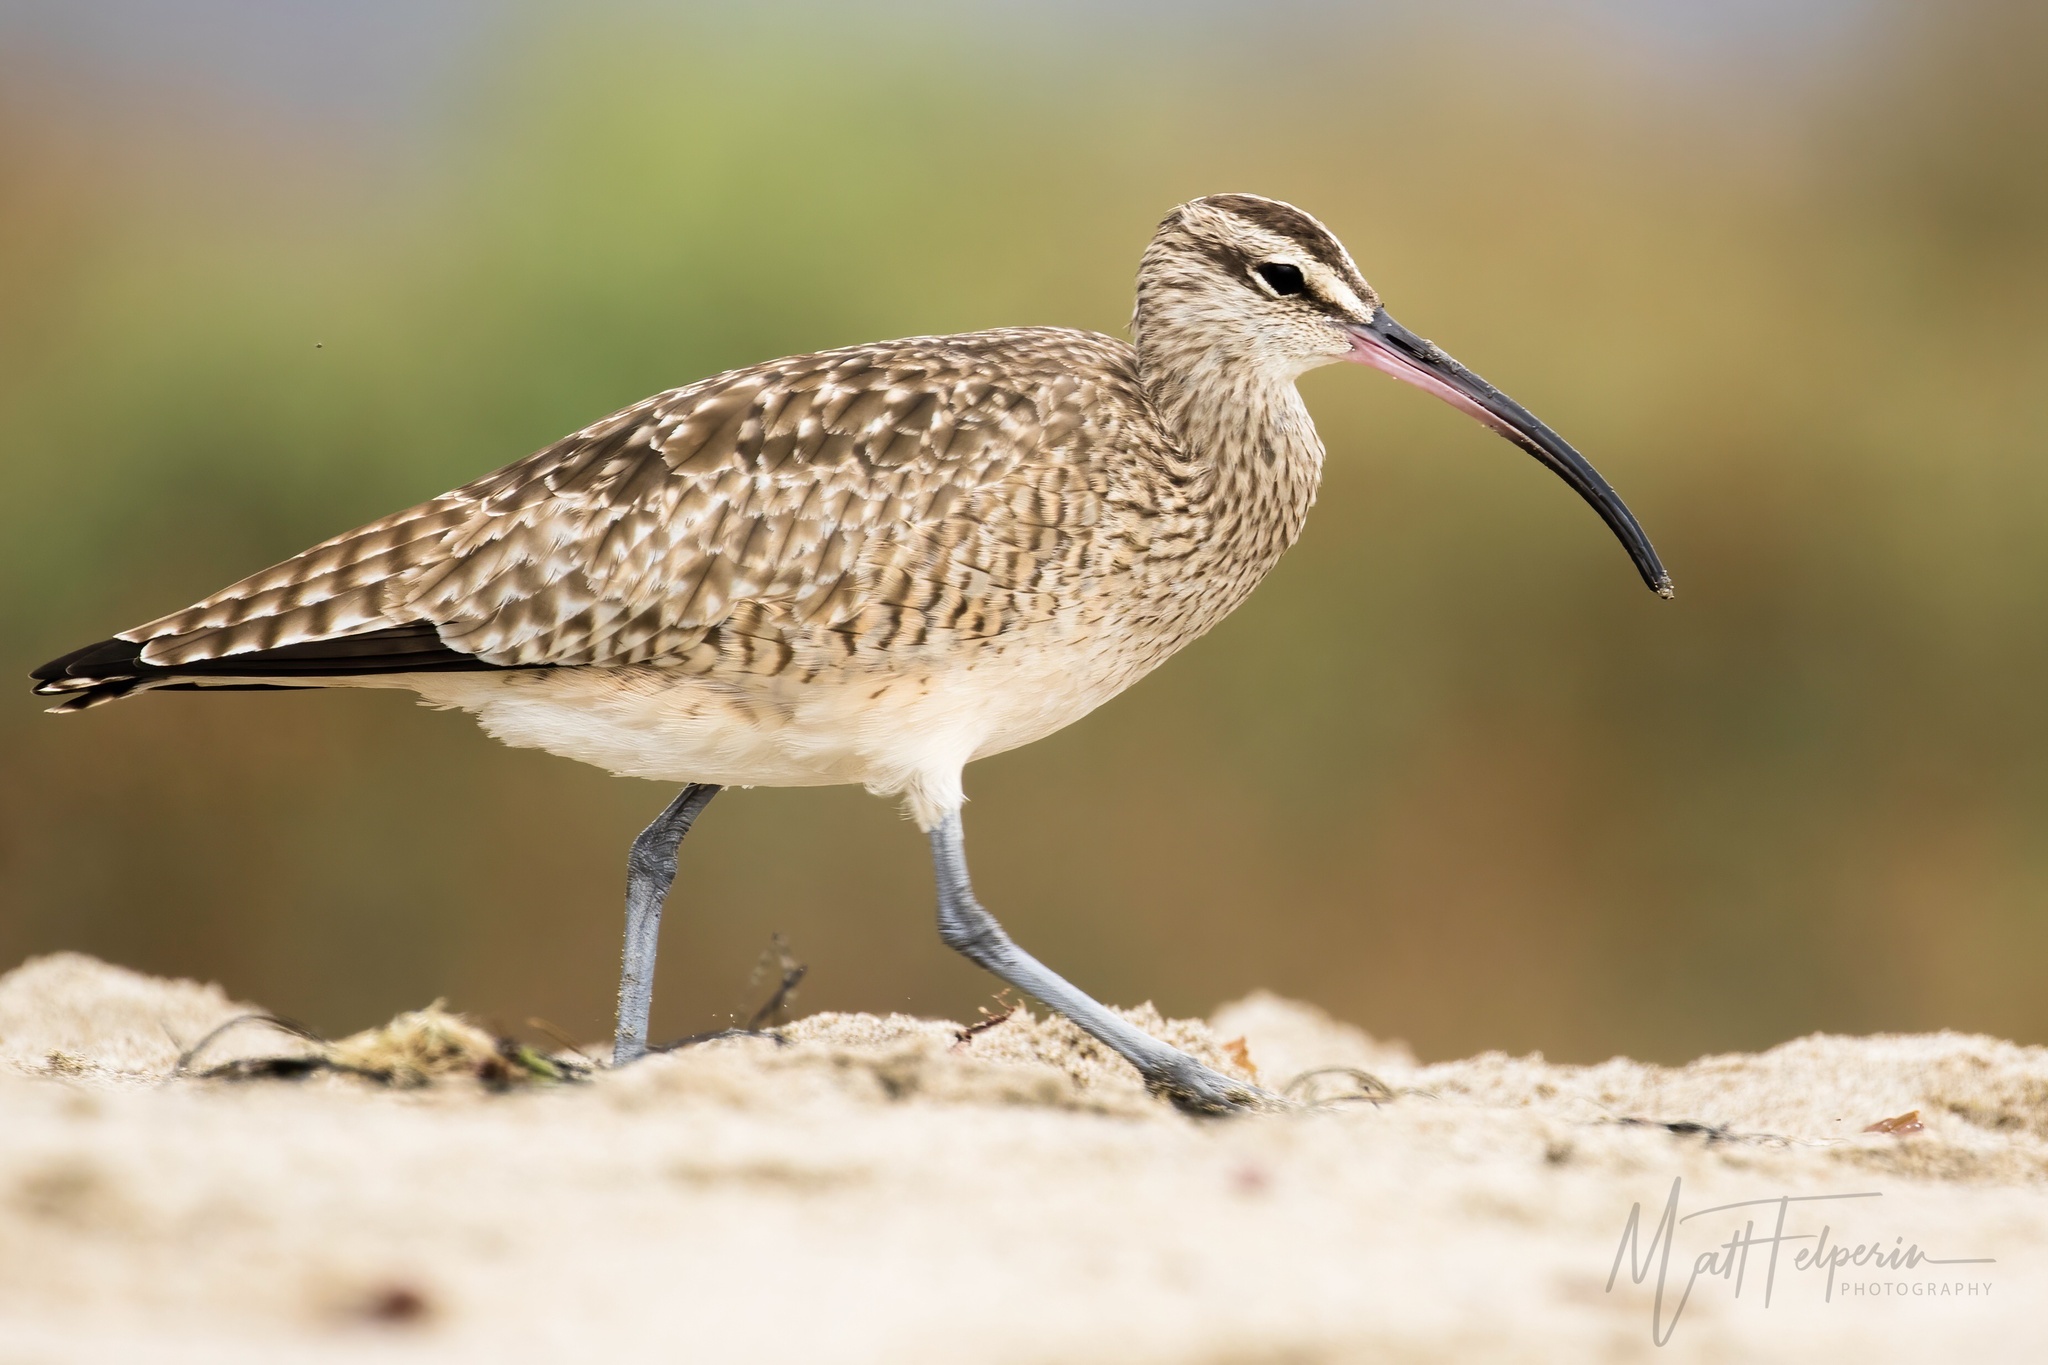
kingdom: Animalia
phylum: Chordata
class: Aves
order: Charadriiformes
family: Scolopacidae
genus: Numenius
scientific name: Numenius phaeopus
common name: Whimbrel
